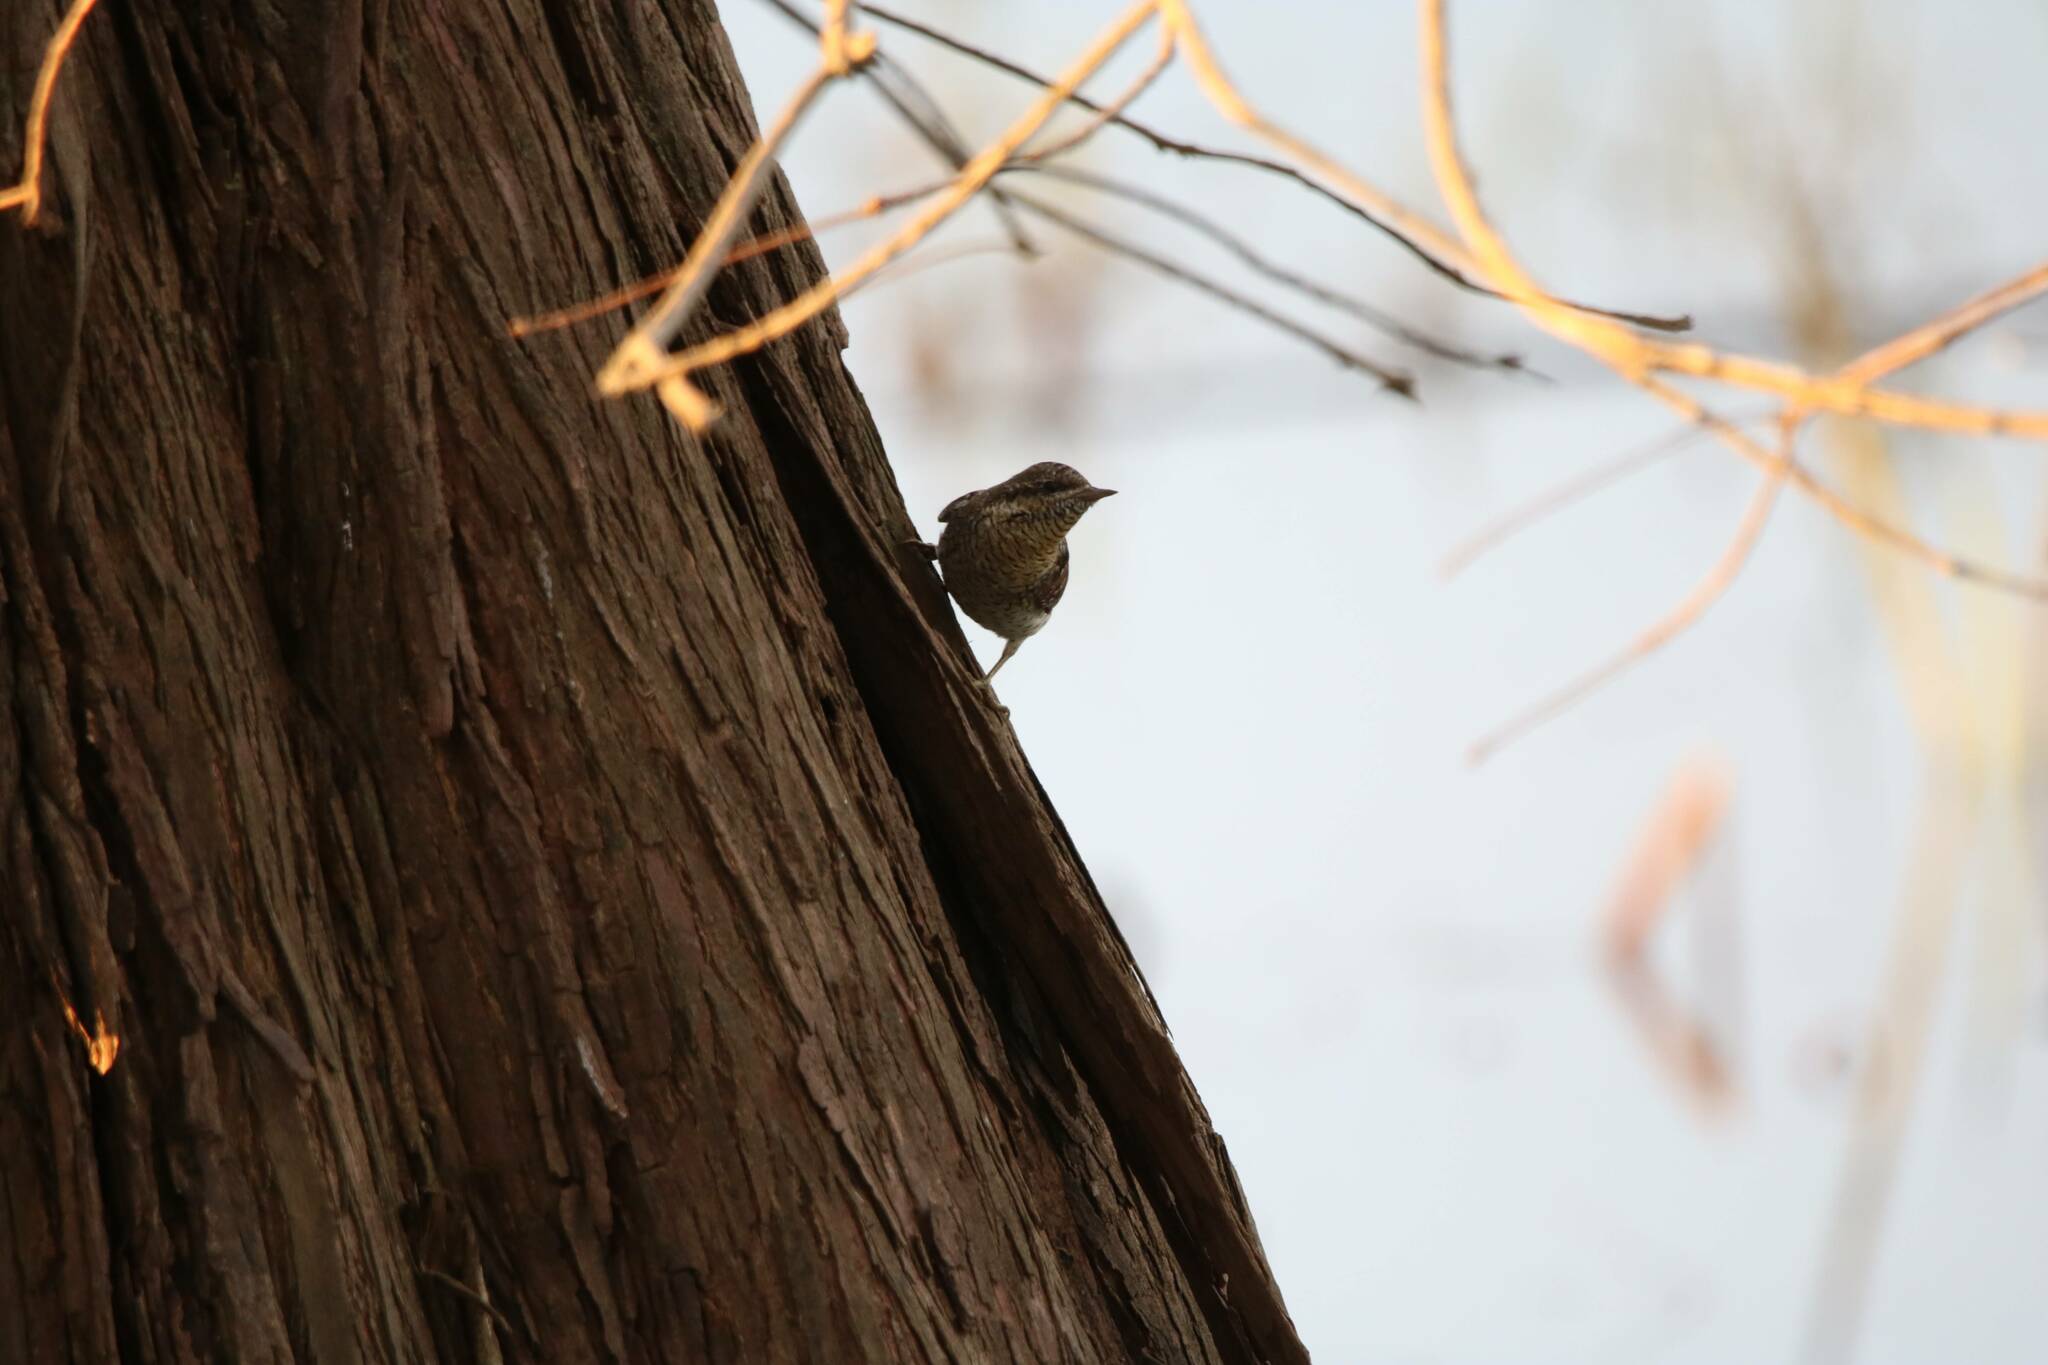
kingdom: Animalia
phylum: Chordata
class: Aves
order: Piciformes
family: Picidae
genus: Jynx
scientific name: Jynx torquilla
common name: Eurasian wryneck
